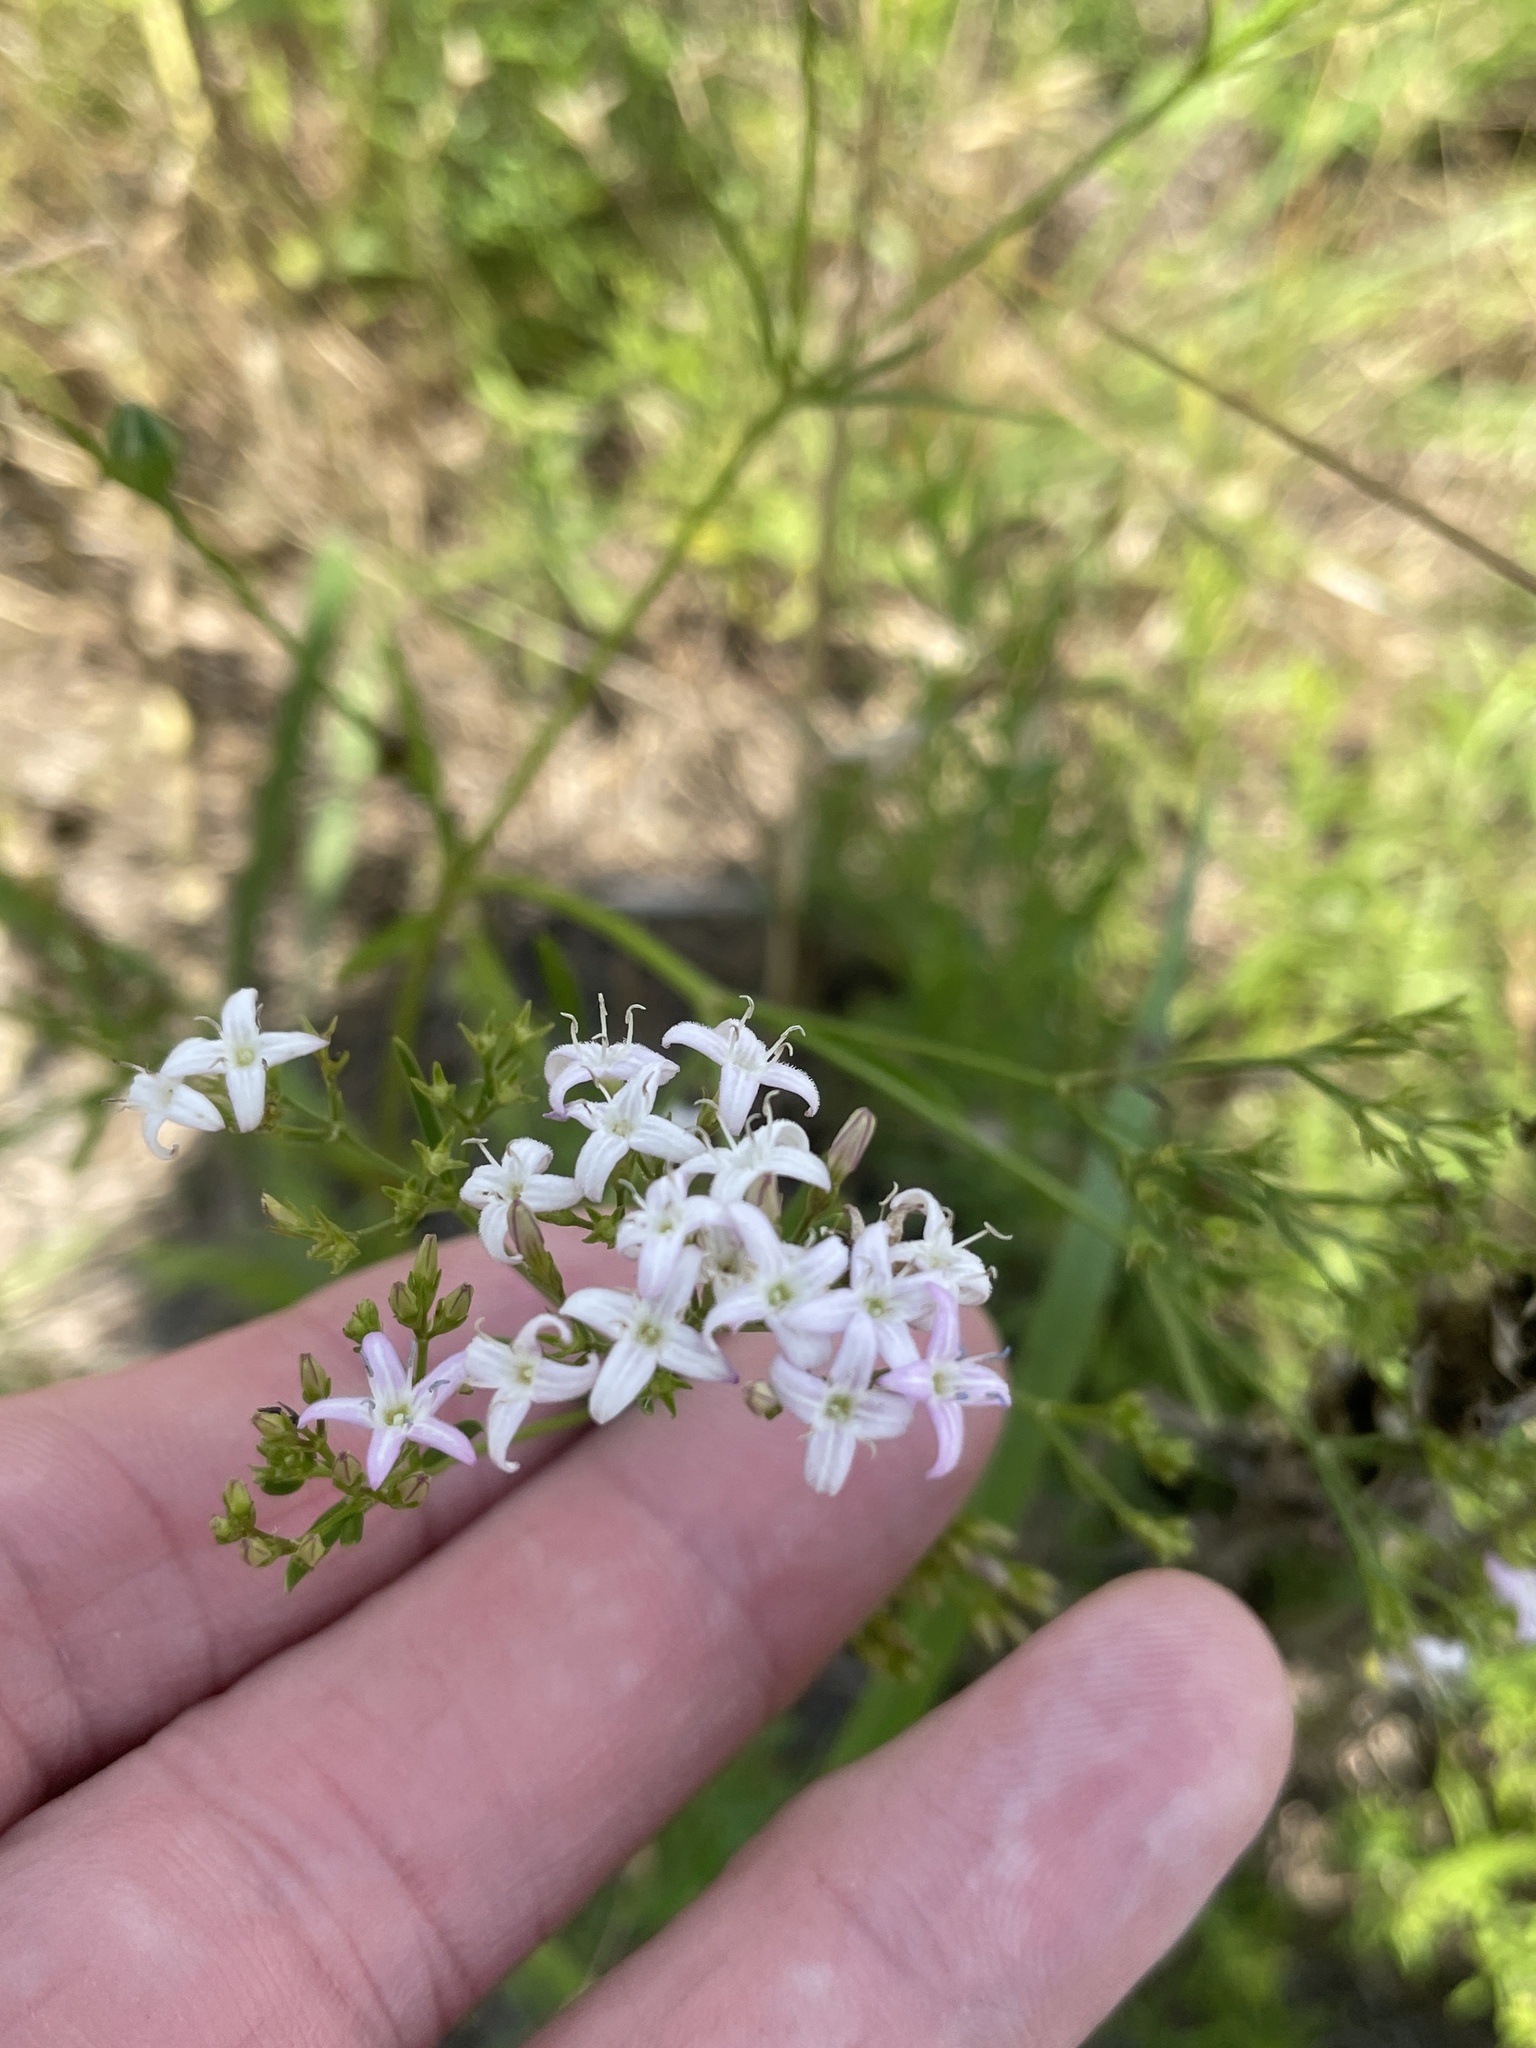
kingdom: Plantae
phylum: Tracheophyta
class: Magnoliopsida
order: Gentianales
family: Rubiaceae
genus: Stenaria
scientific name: Stenaria nigricans
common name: Diamondflowers
